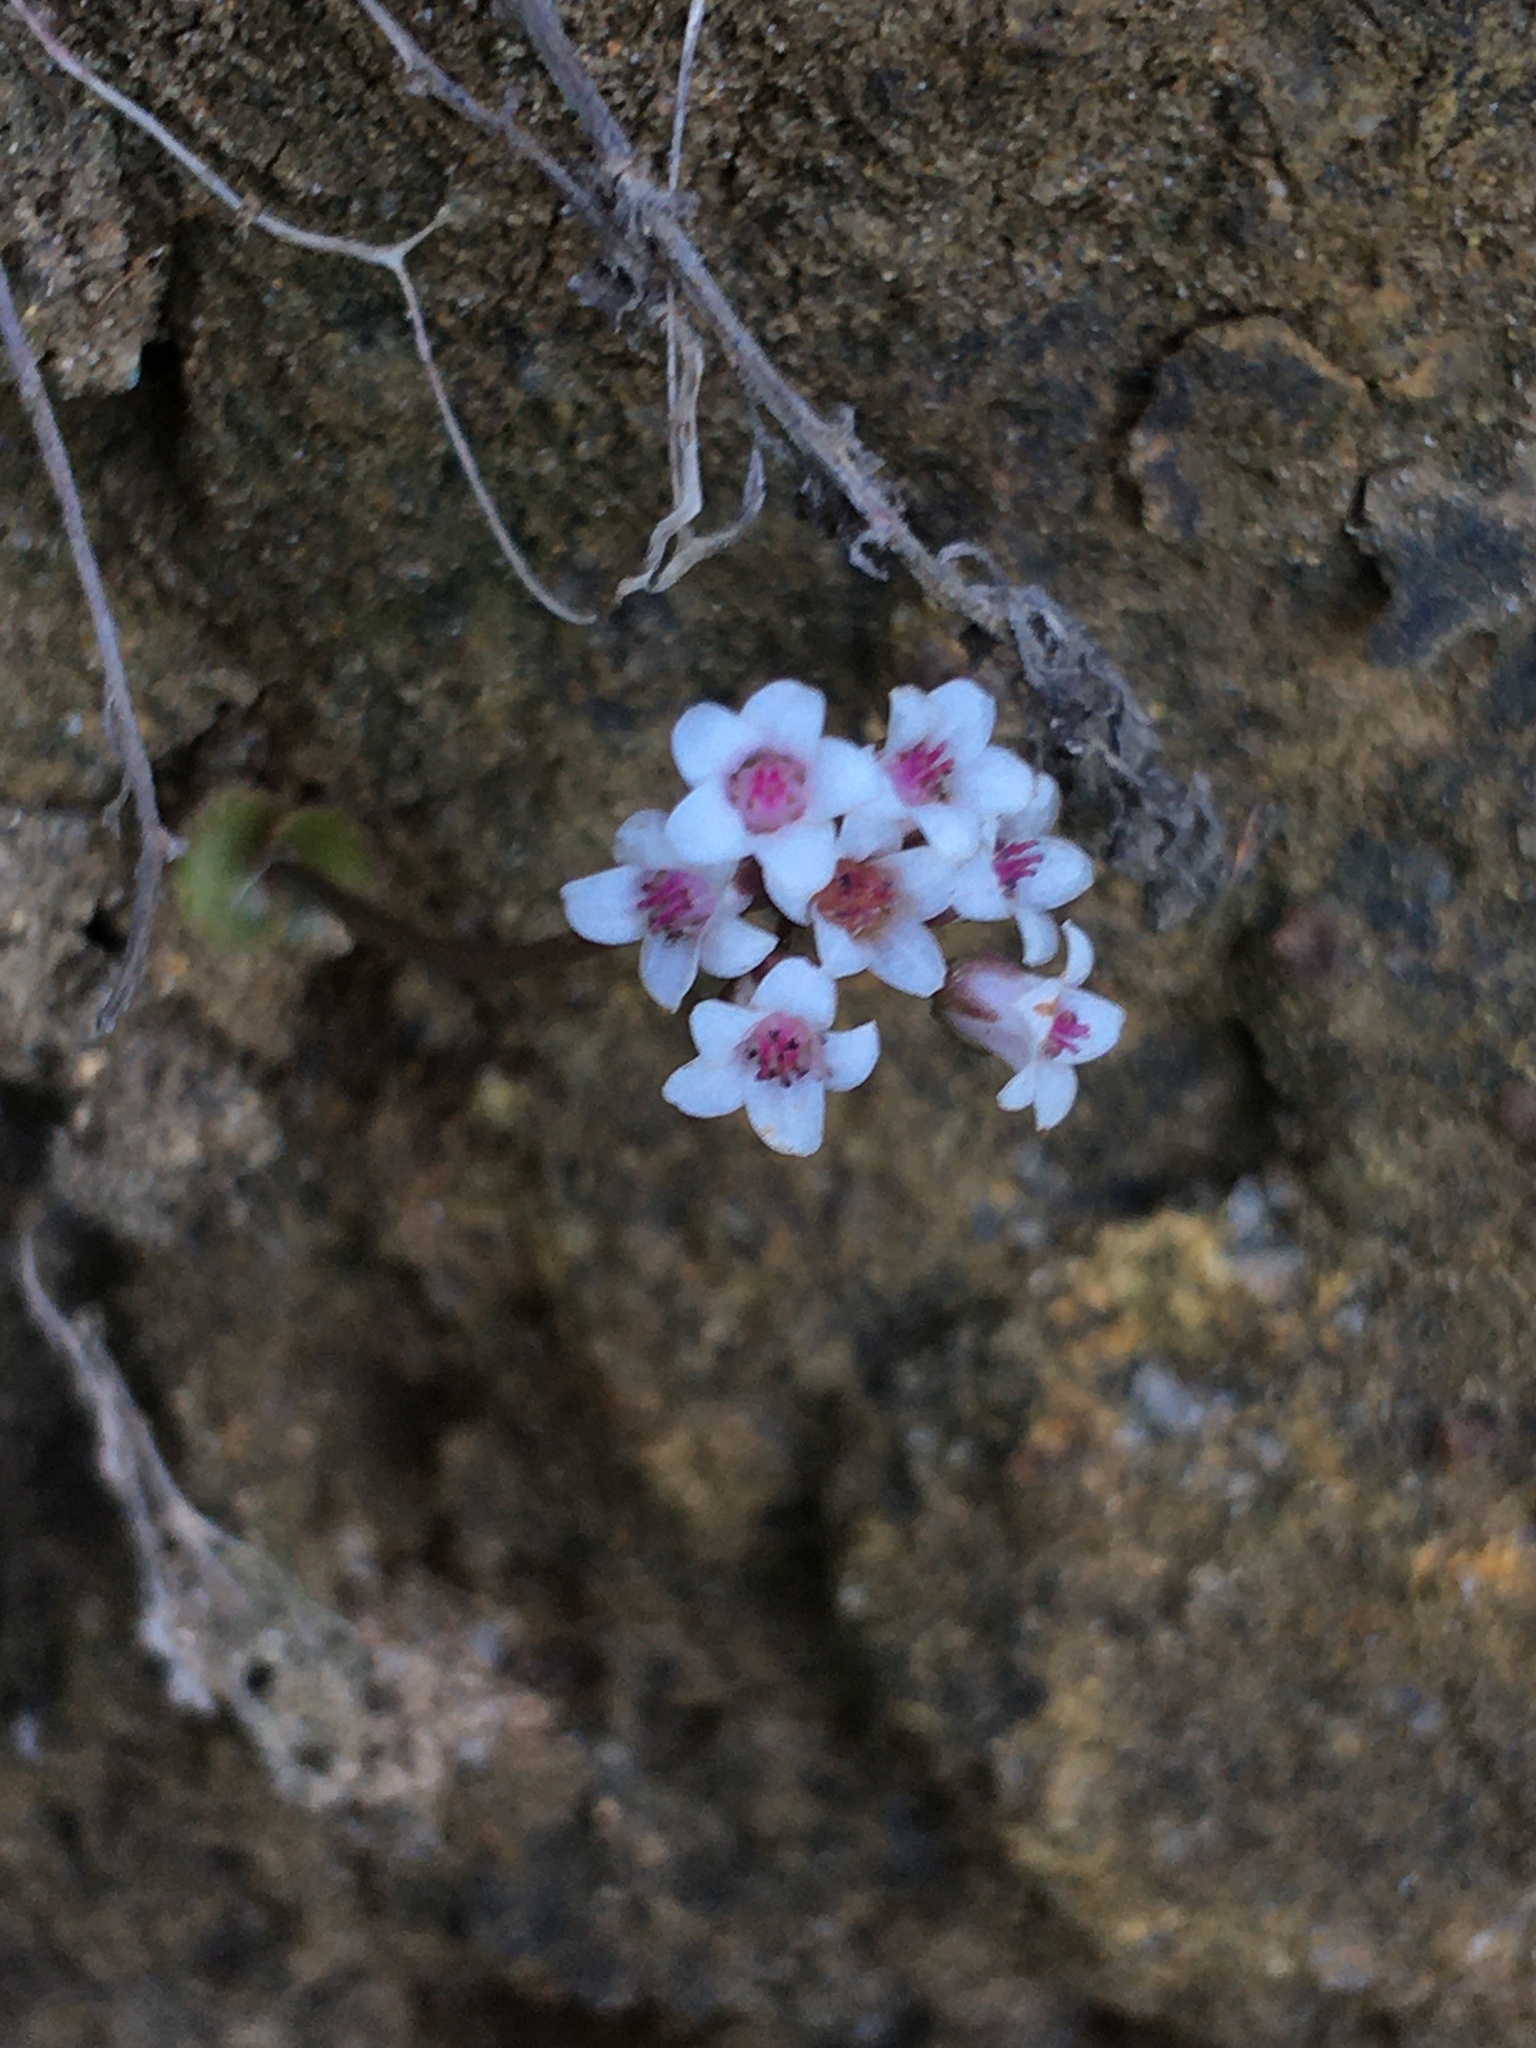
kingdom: Plantae
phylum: Tracheophyta
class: Magnoliopsida
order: Saxifragales
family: Crassulaceae
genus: Crassula
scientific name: Crassula saxifraga
